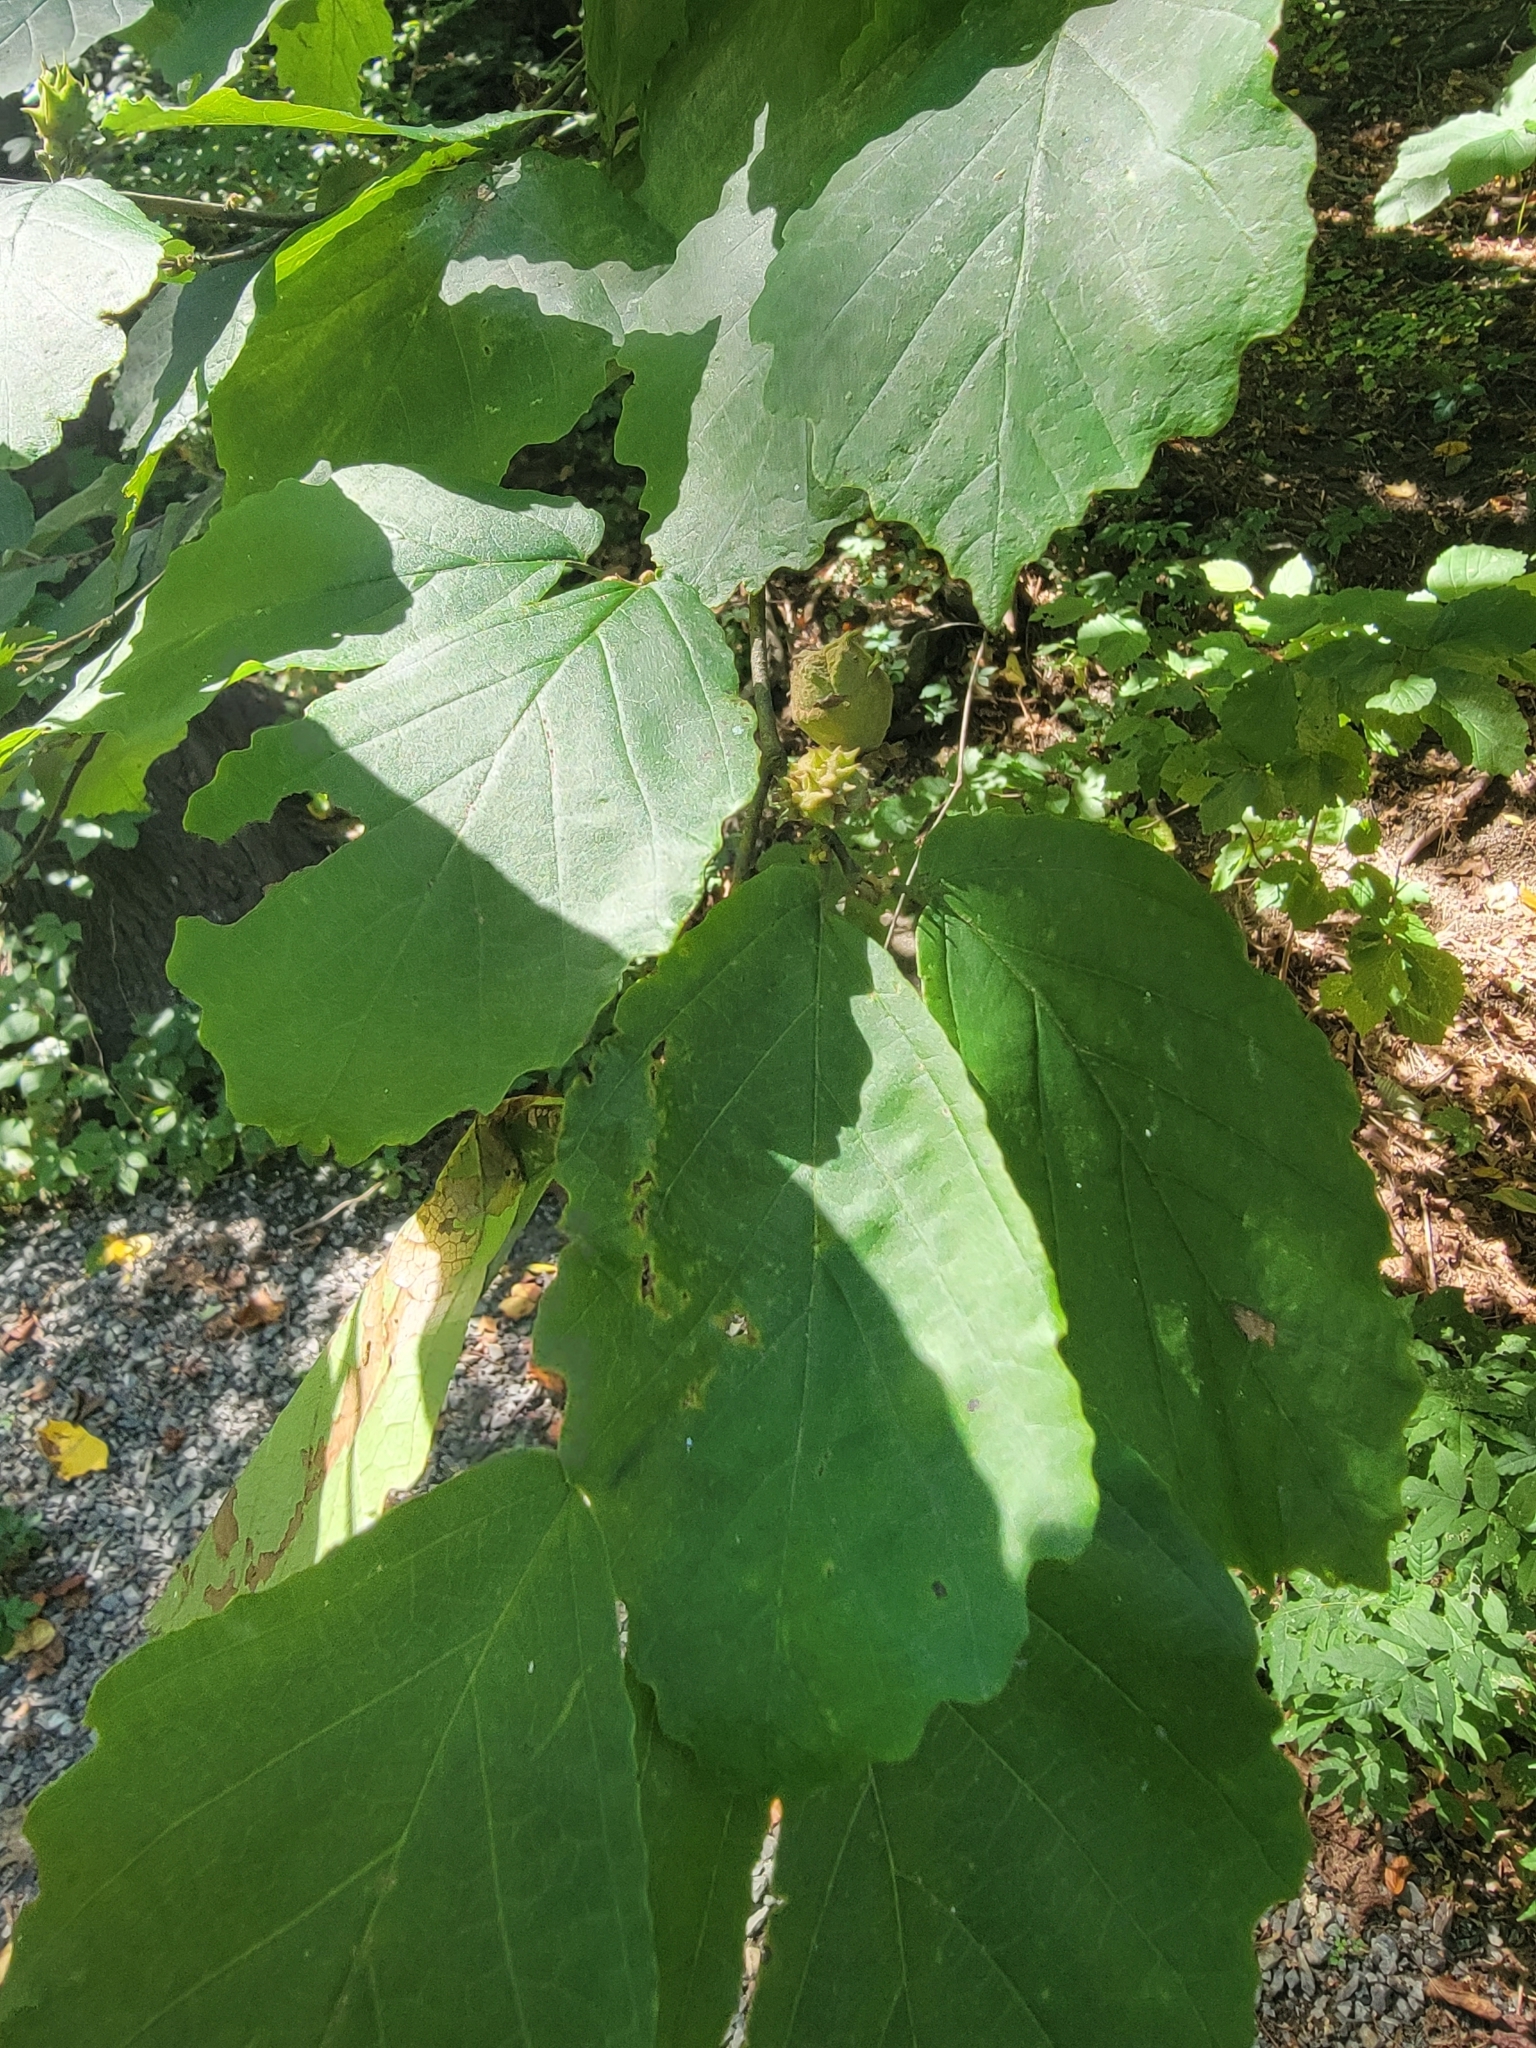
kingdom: Plantae
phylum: Tracheophyta
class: Magnoliopsida
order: Saxifragales
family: Hamamelidaceae
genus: Hamamelis
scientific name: Hamamelis virginiana
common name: Witch-hazel
